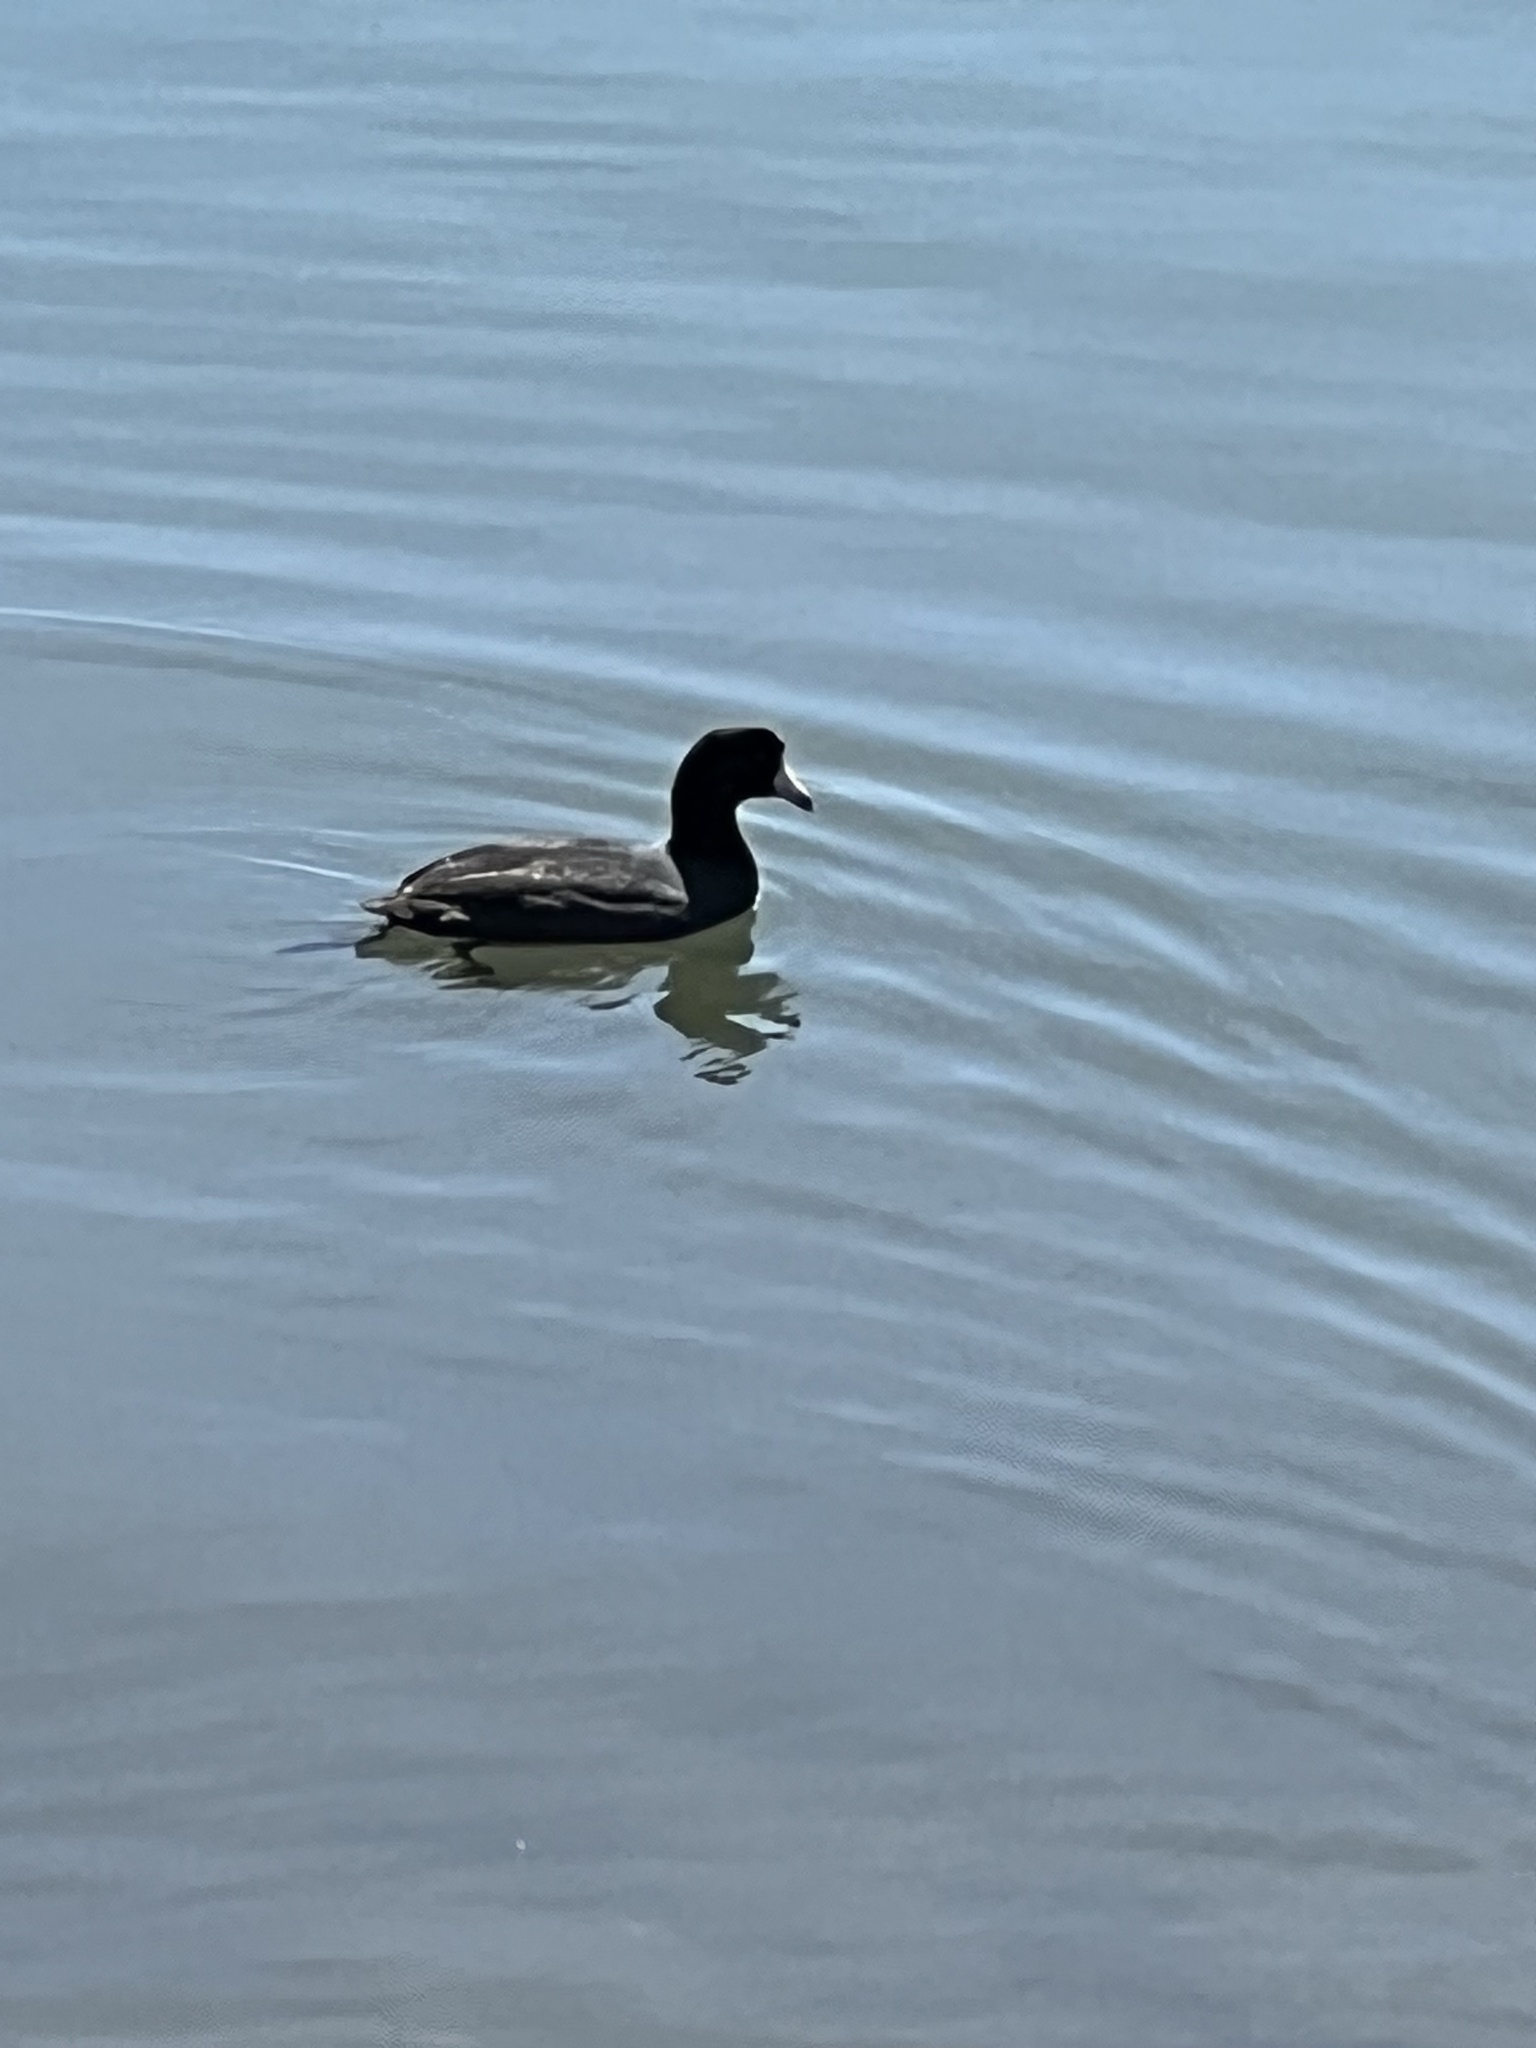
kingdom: Animalia
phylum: Chordata
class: Aves
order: Gruiformes
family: Rallidae
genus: Fulica
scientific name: Fulica americana
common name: American coot
